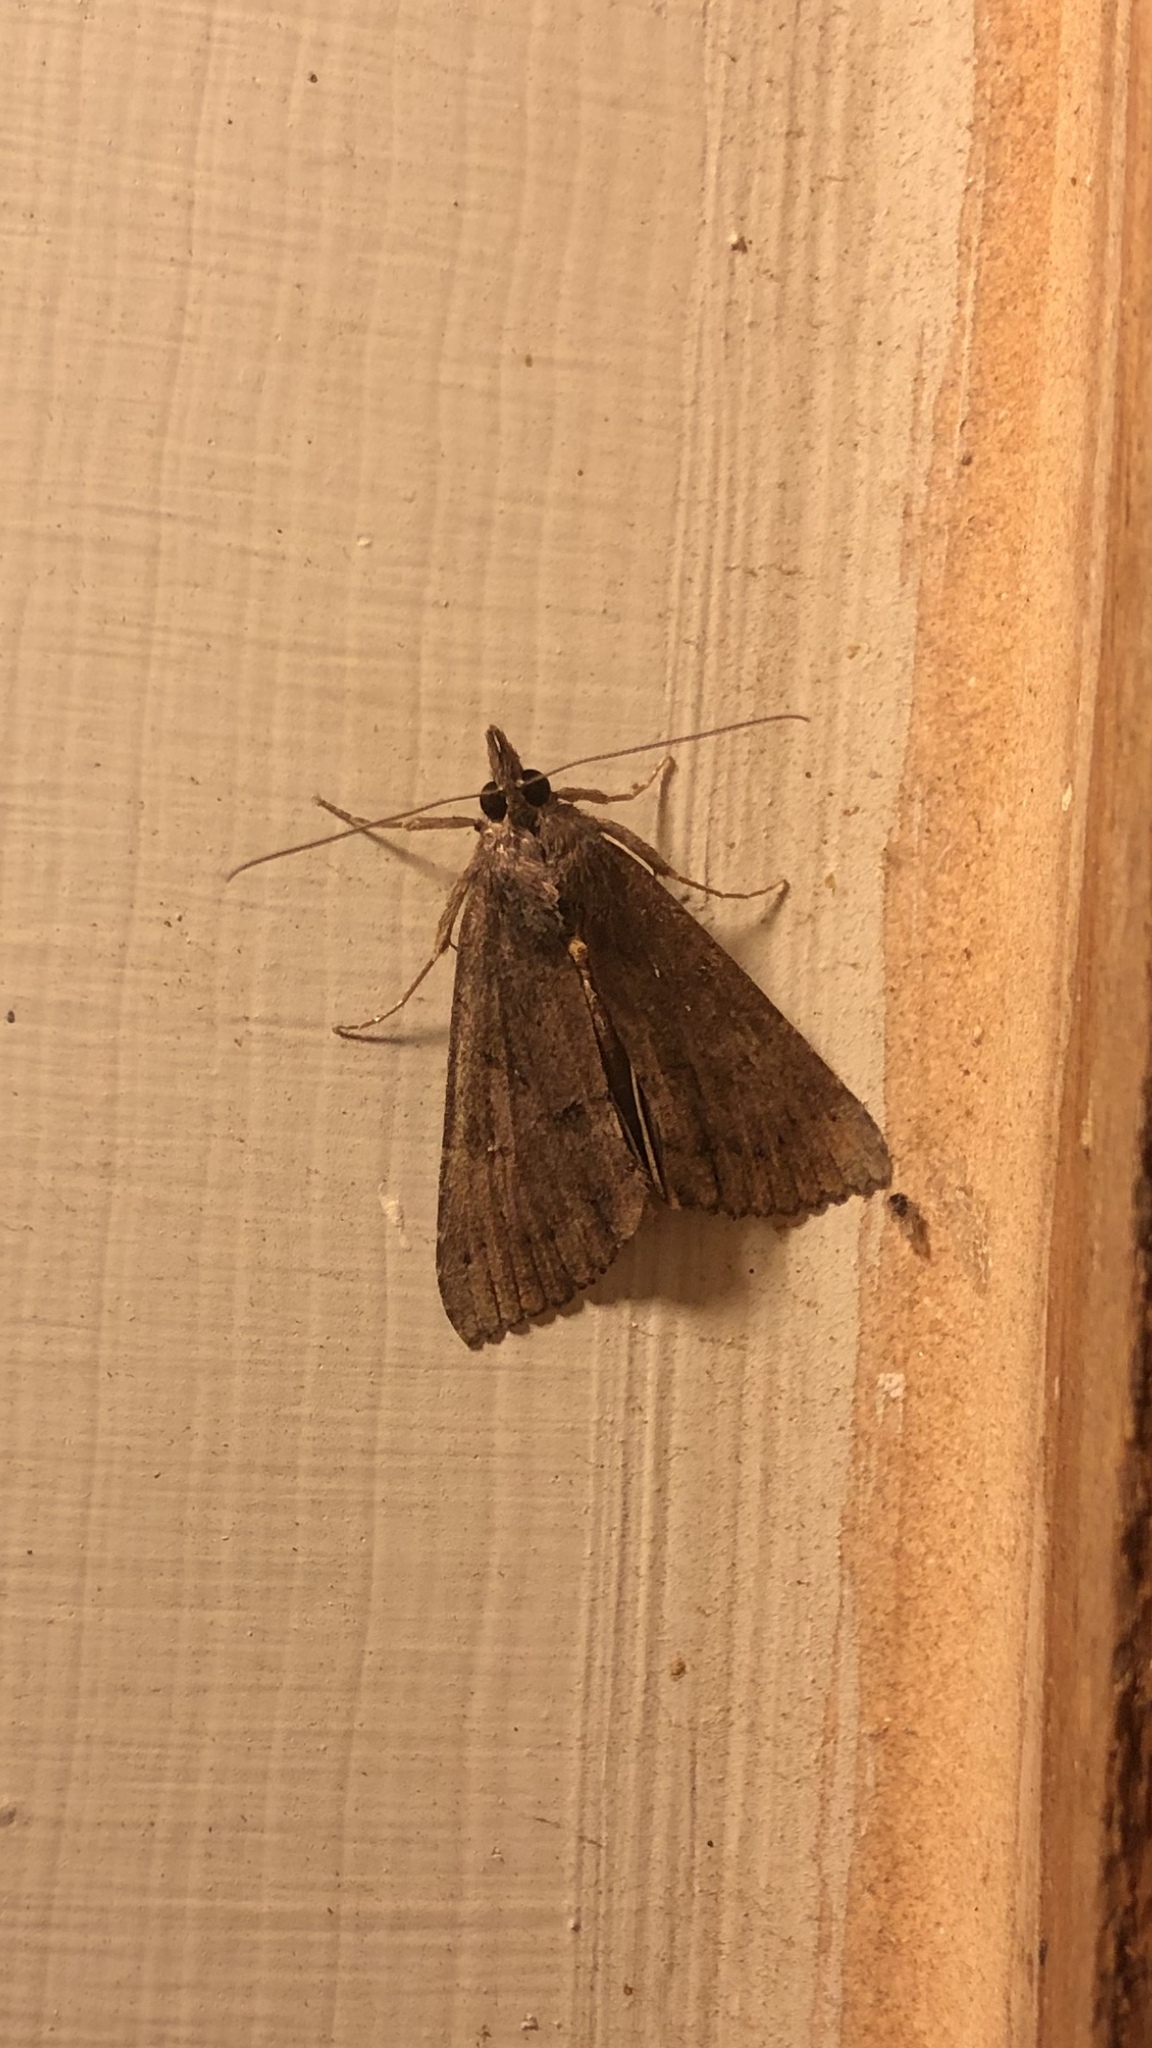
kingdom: Animalia
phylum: Arthropoda
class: Insecta
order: Lepidoptera
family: Erebidae
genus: Hypena
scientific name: Hypena scabra
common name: Green cloverworm
